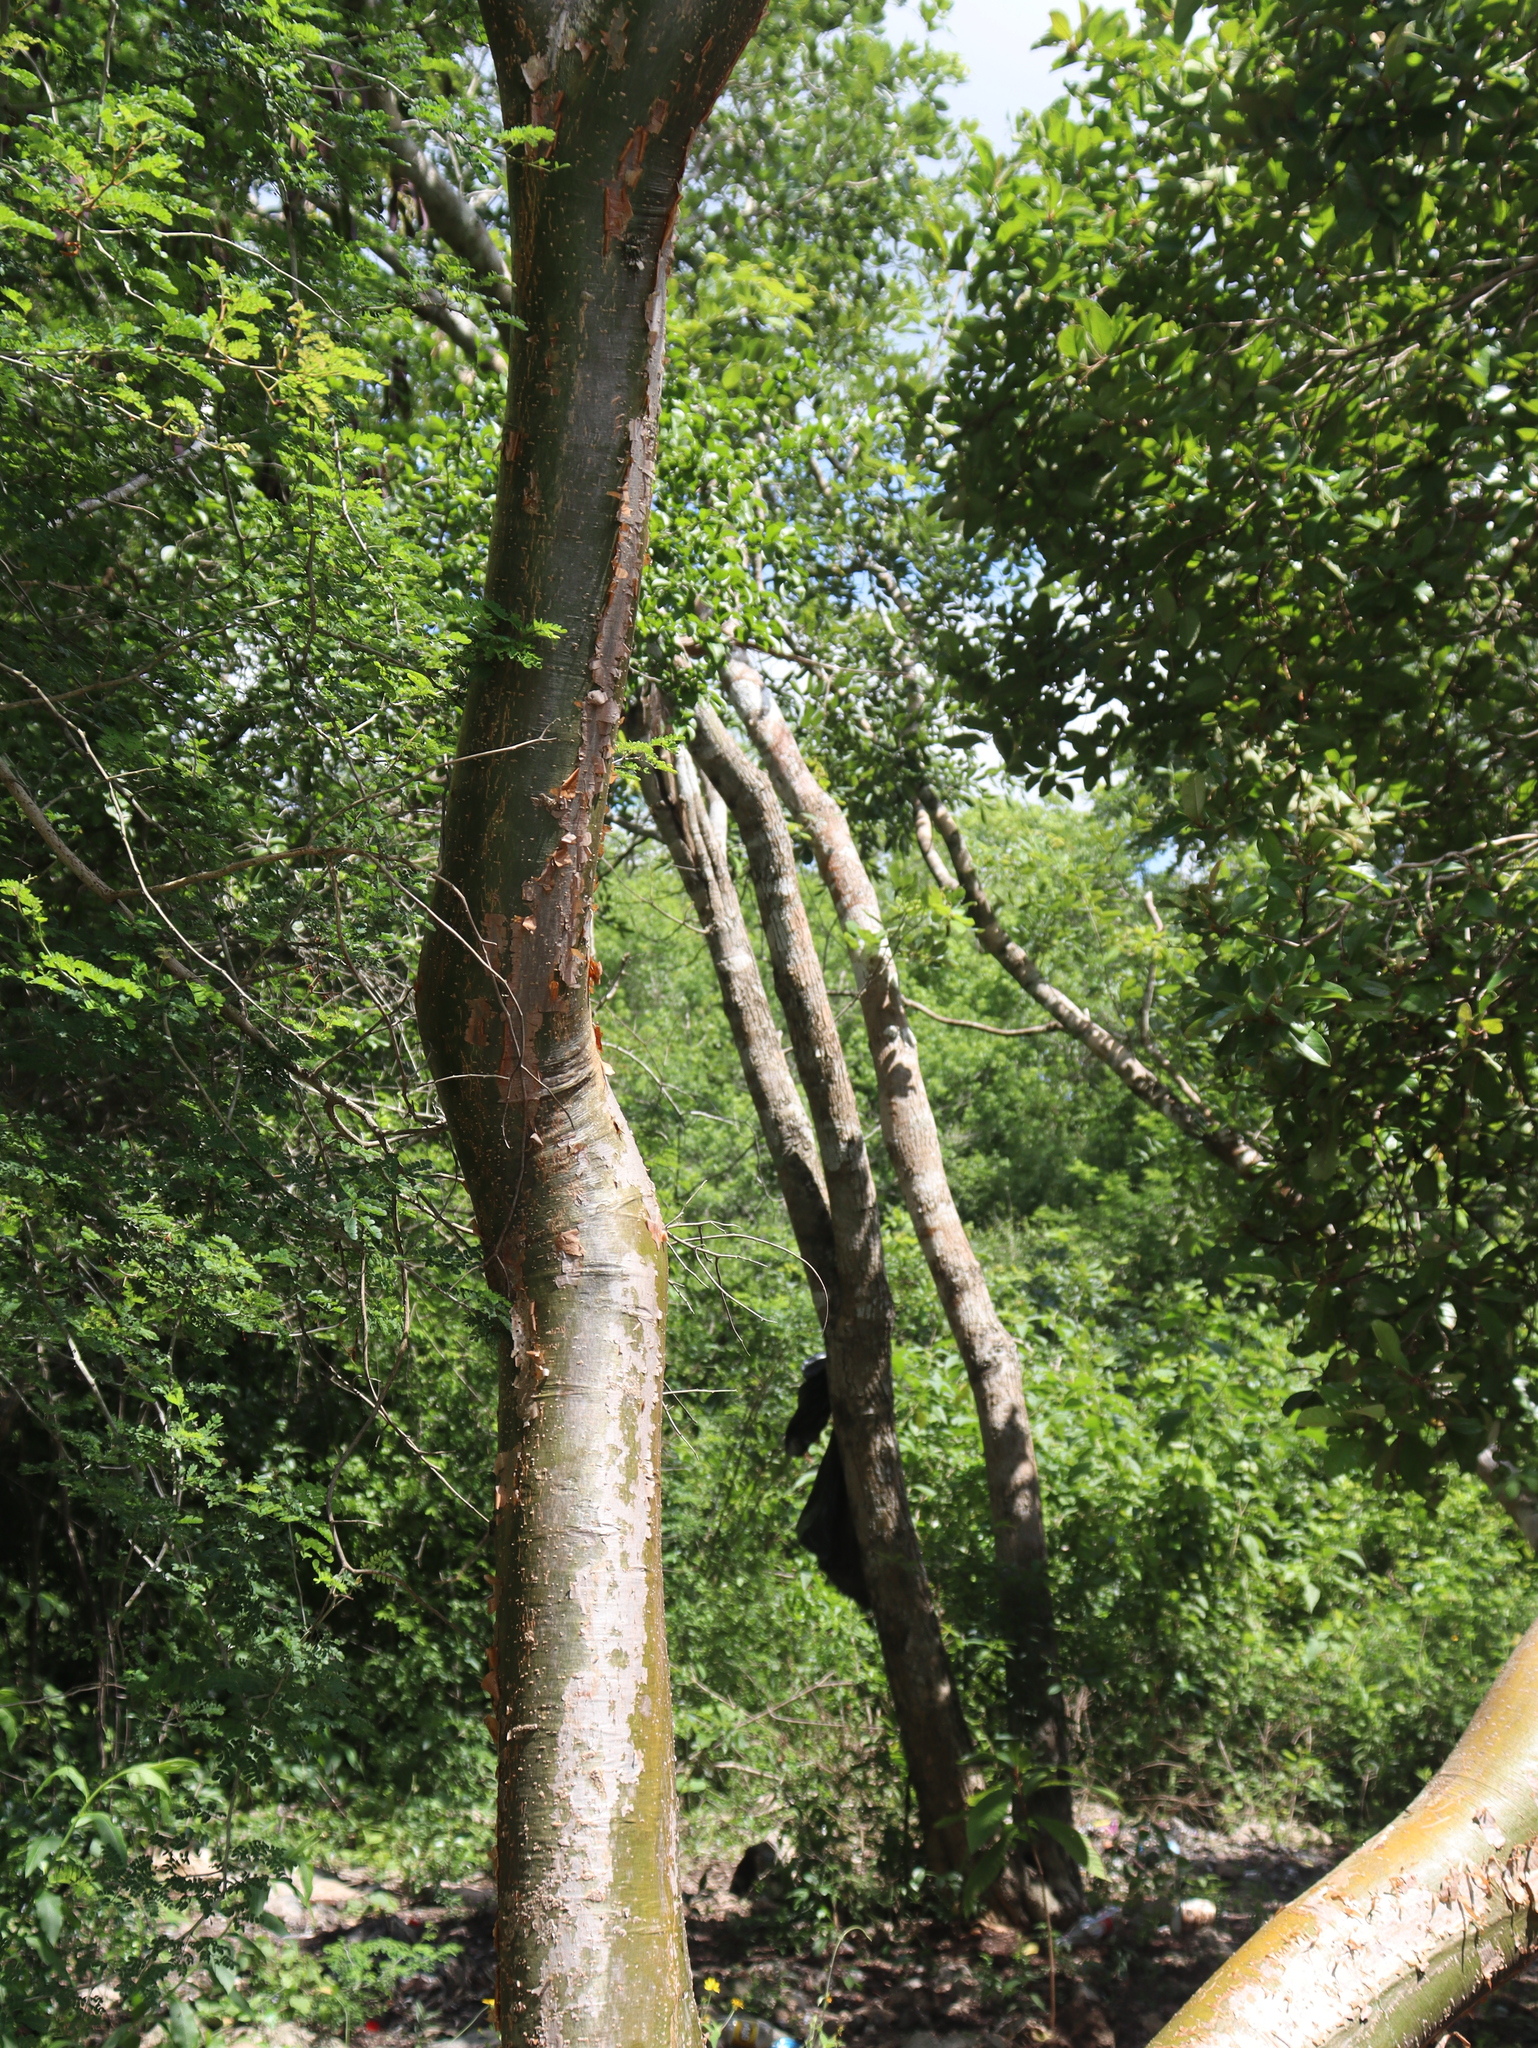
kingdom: Plantae
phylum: Tracheophyta
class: Magnoliopsida
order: Sapindales
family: Burseraceae
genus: Bursera
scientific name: Bursera simaruba
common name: Turpentine tree
